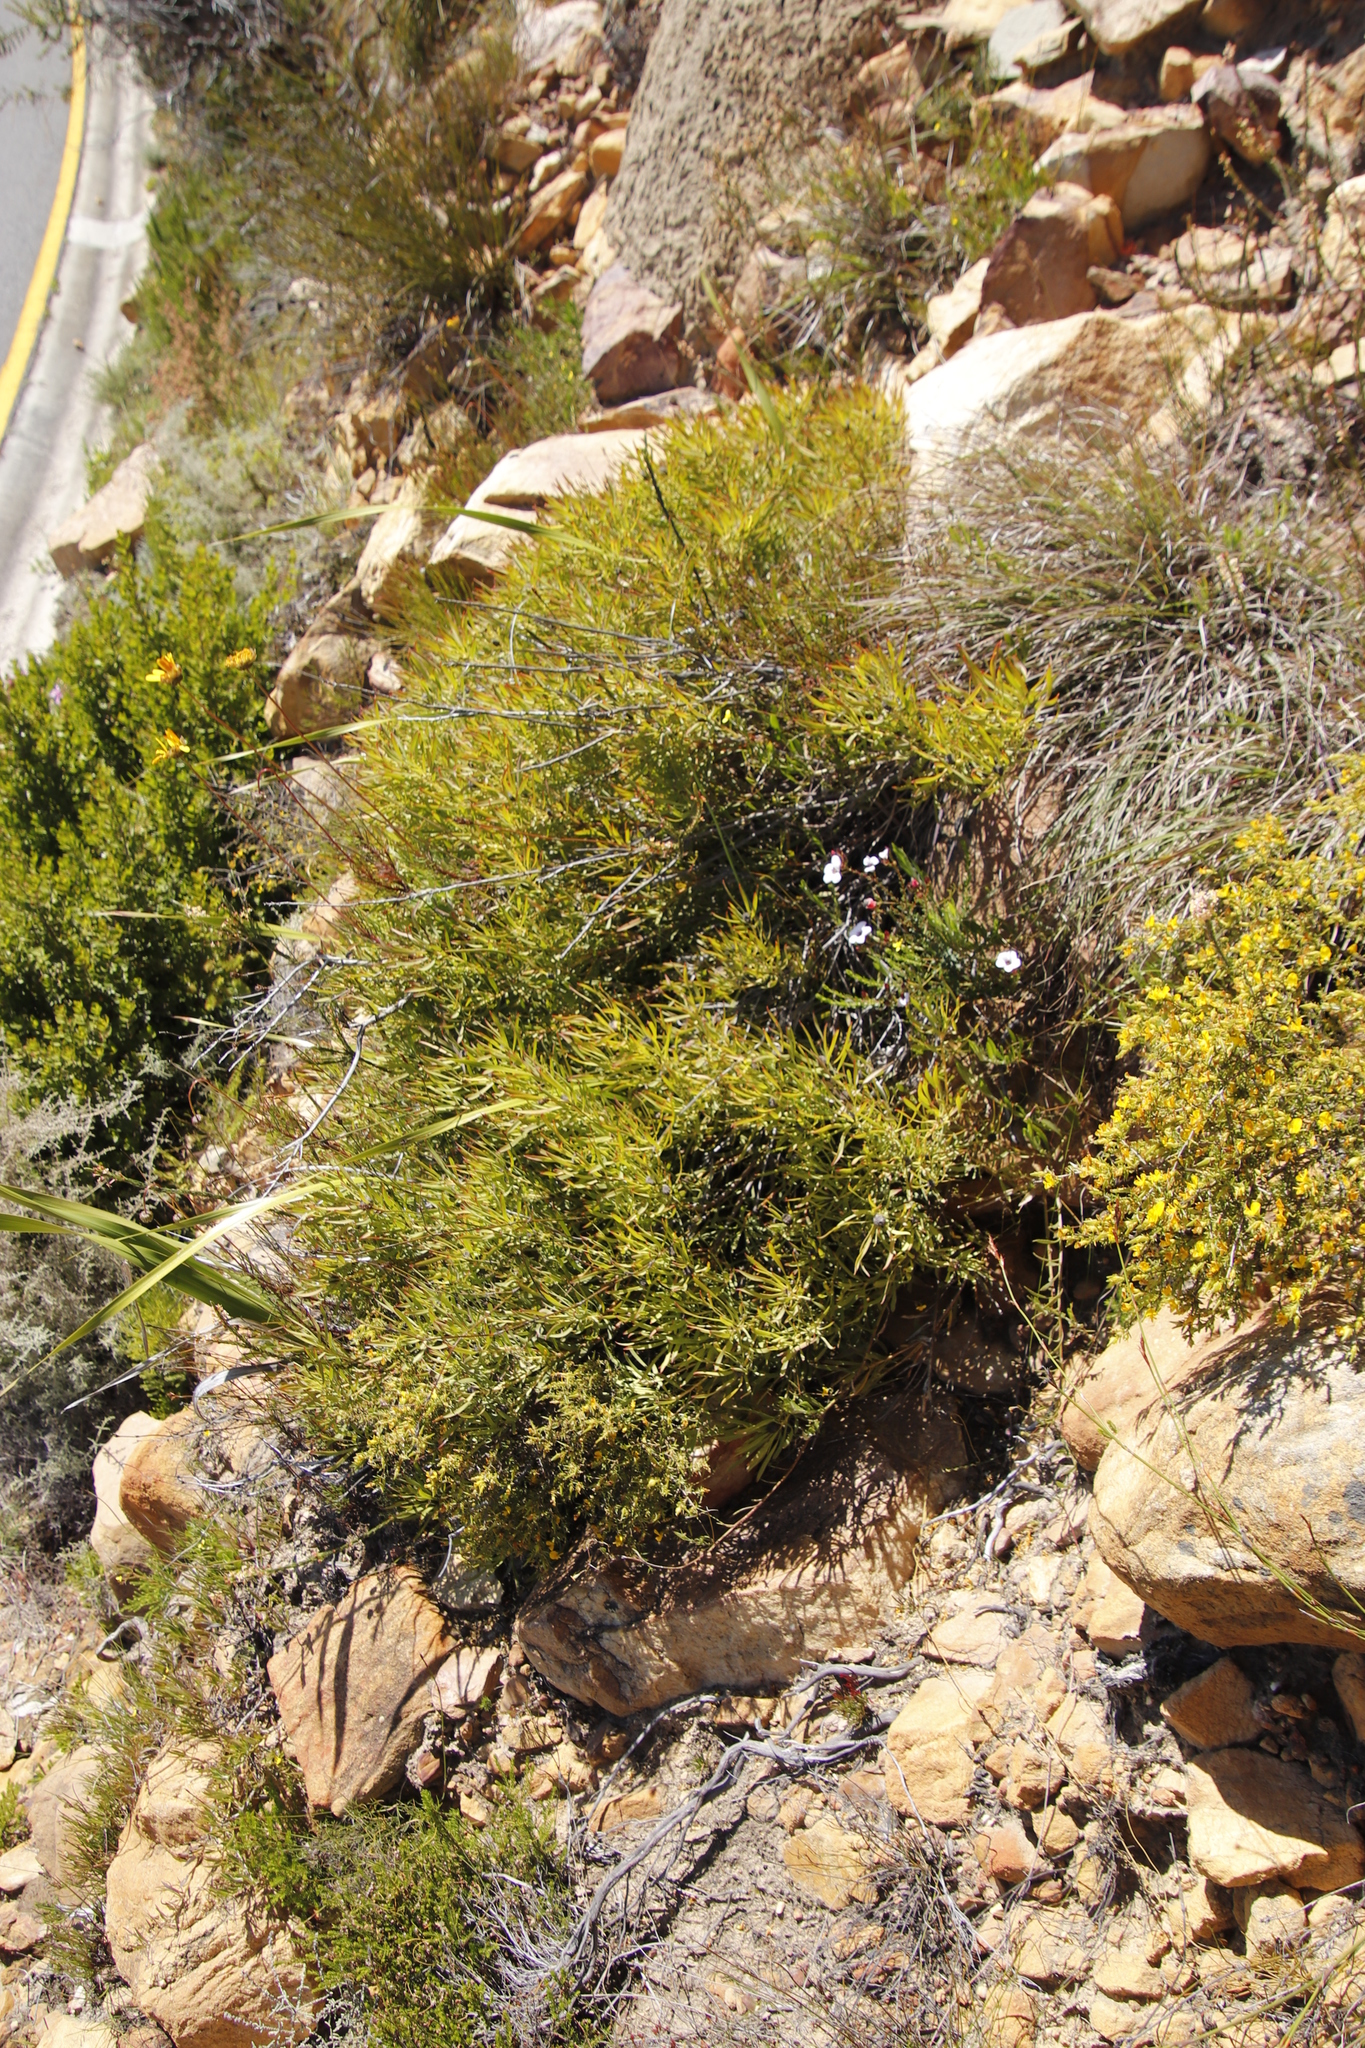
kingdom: Plantae
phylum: Tracheophyta
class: Magnoliopsida
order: Proteales
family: Proteaceae
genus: Leucadendron
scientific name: Leucadendron salignum
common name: Common sunshine conebush
